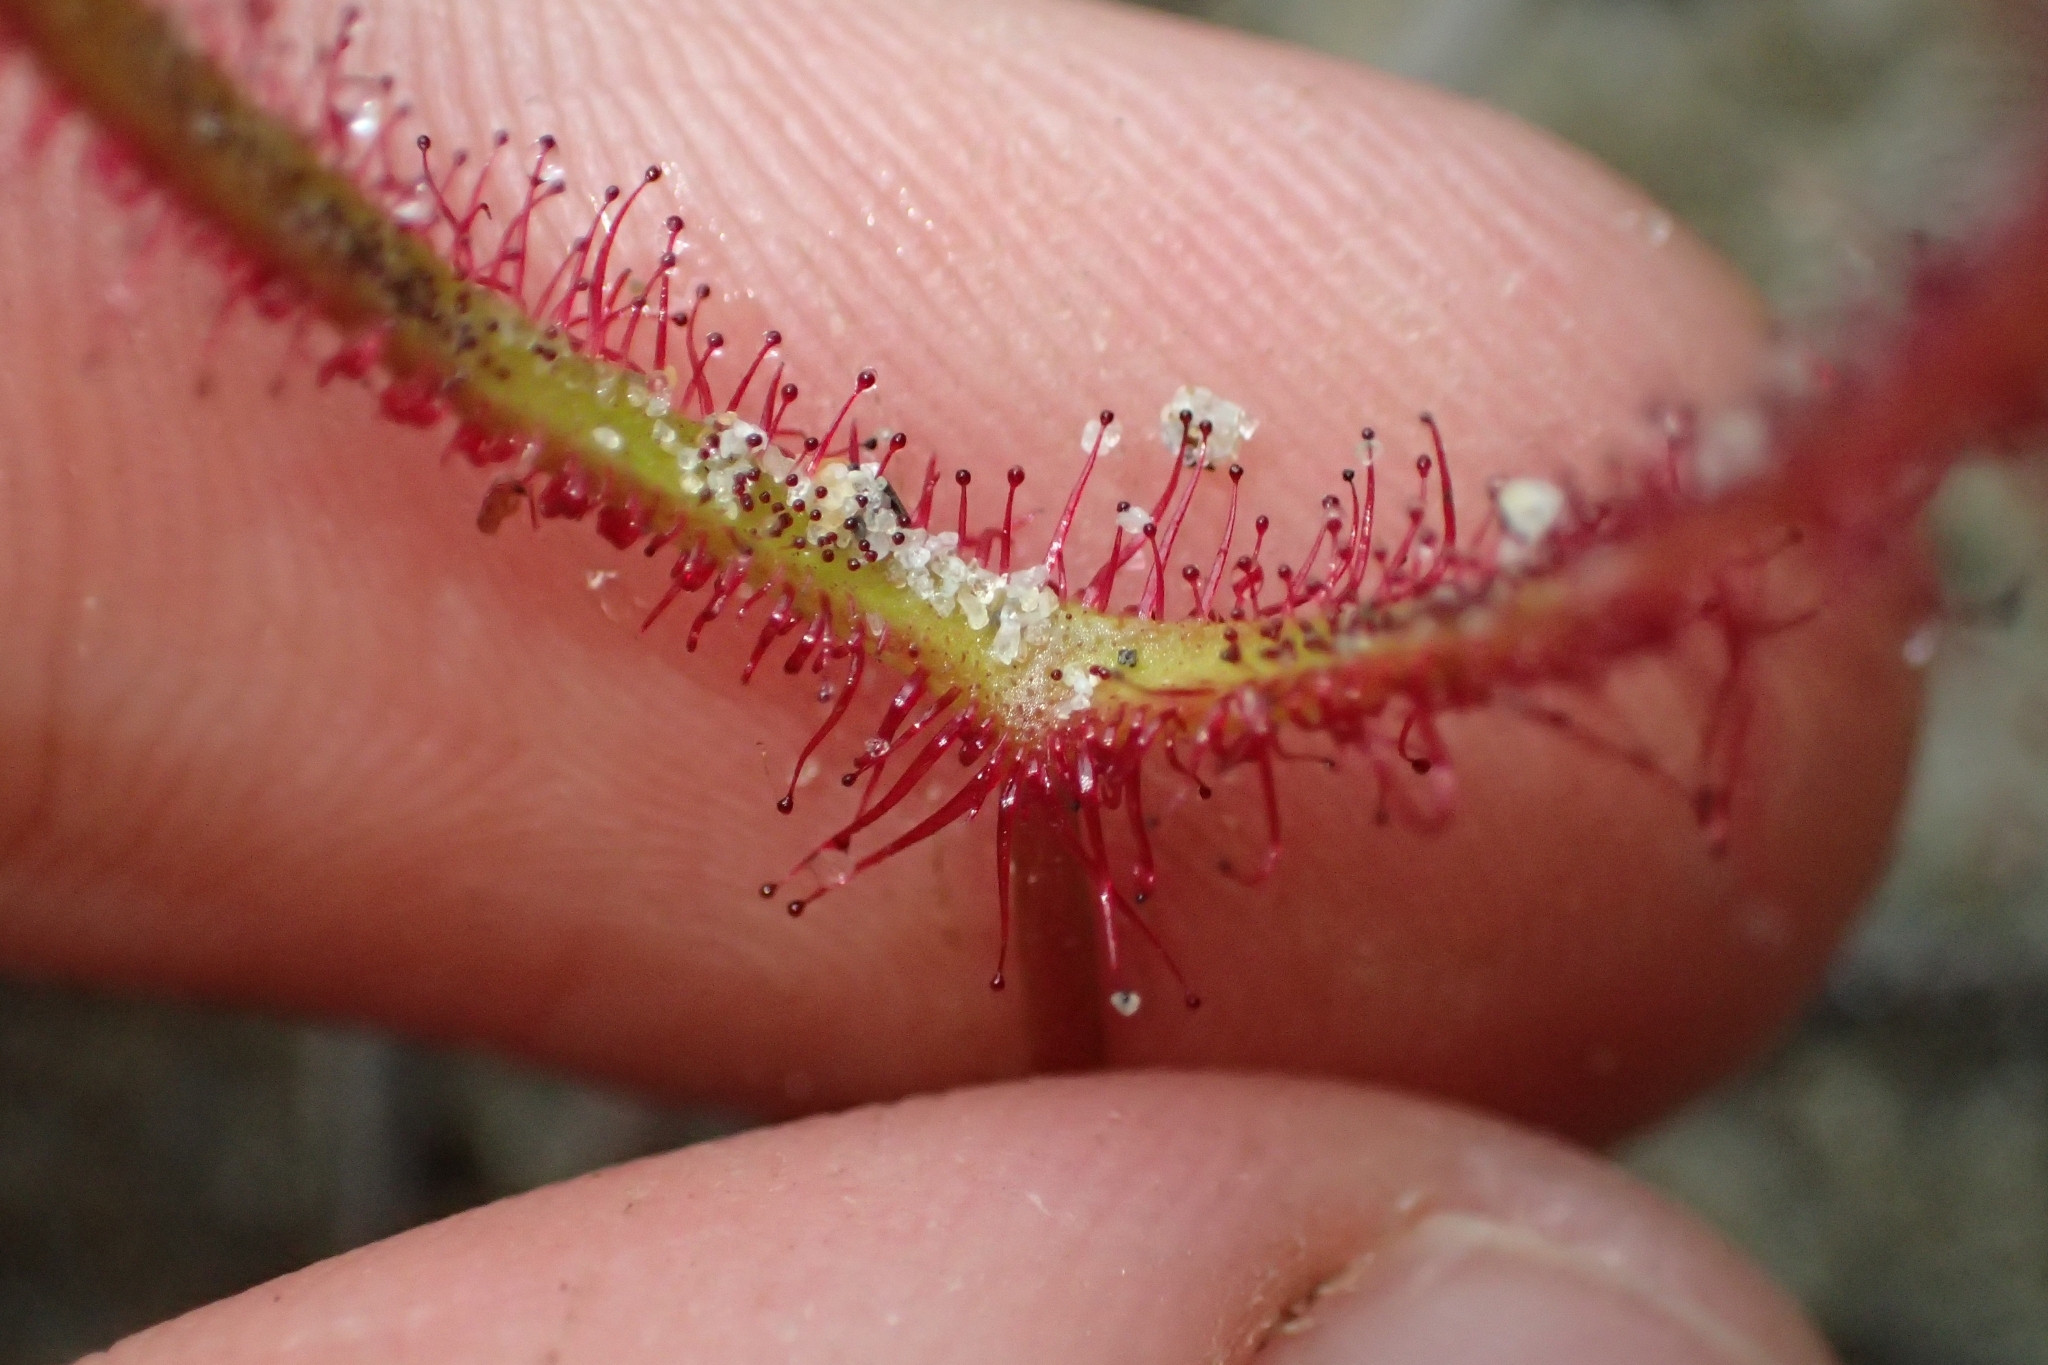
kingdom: Plantae
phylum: Tracheophyta
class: Magnoliopsida
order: Caryophyllales
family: Droseraceae
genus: Drosera
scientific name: Drosera binata
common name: Forked sundew
